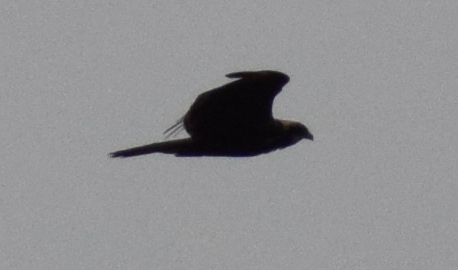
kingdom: Animalia
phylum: Chordata
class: Aves
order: Accipitriformes
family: Accipitridae
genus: Circus
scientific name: Circus aeruginosus
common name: Western marsh harrier
